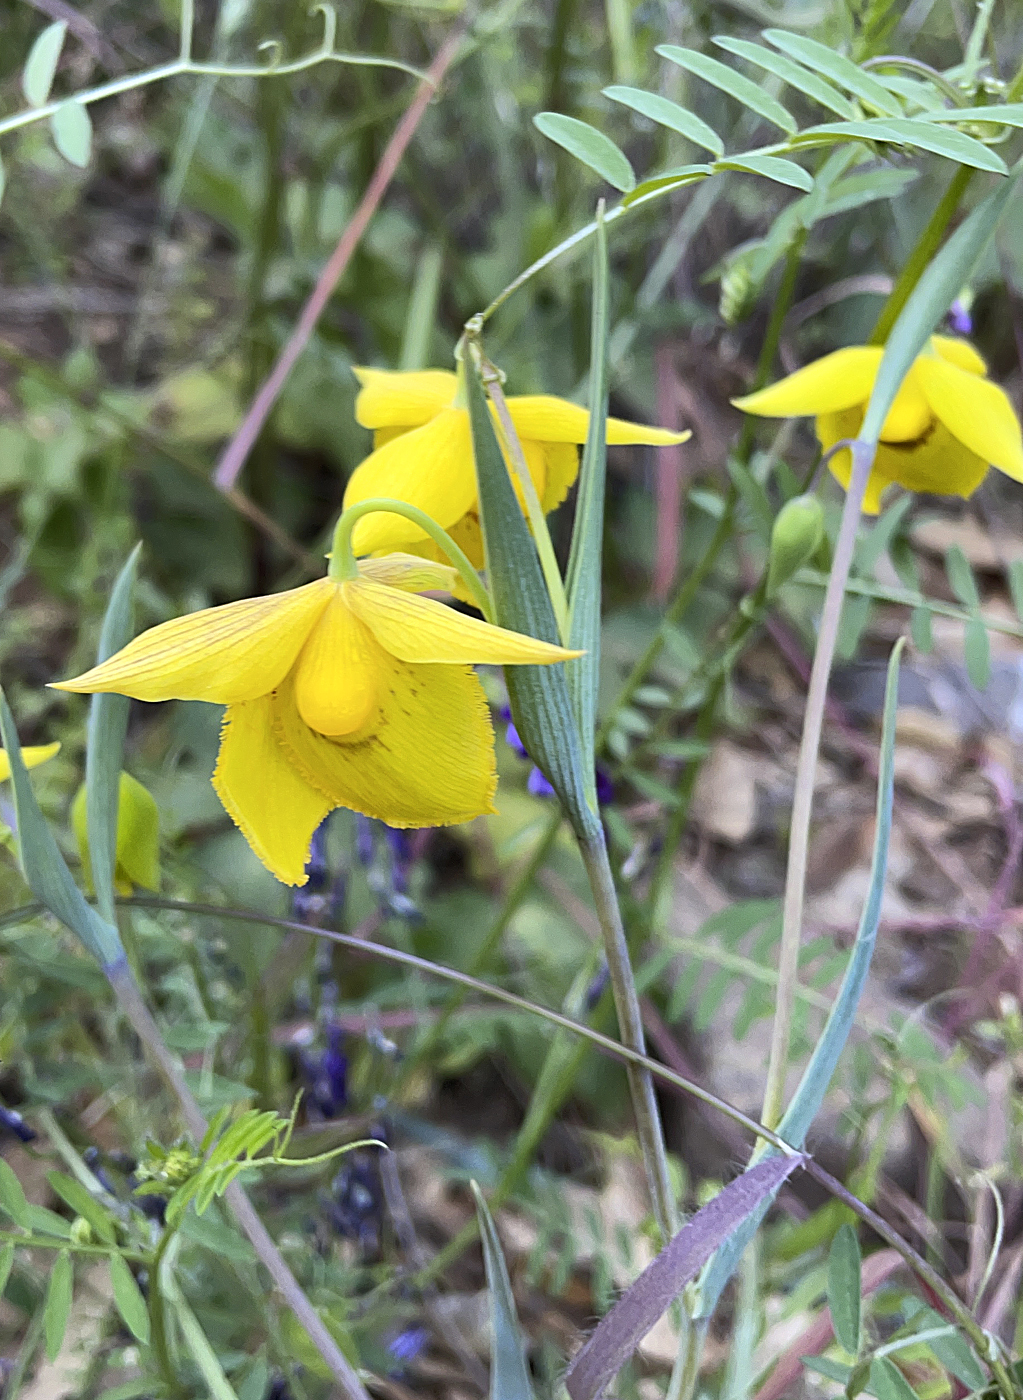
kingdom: Plantae
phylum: Tracheophyta
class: Liliopsida
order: Liliales
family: Liliaceae
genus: Calochortus
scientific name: Calochortus amabilis
